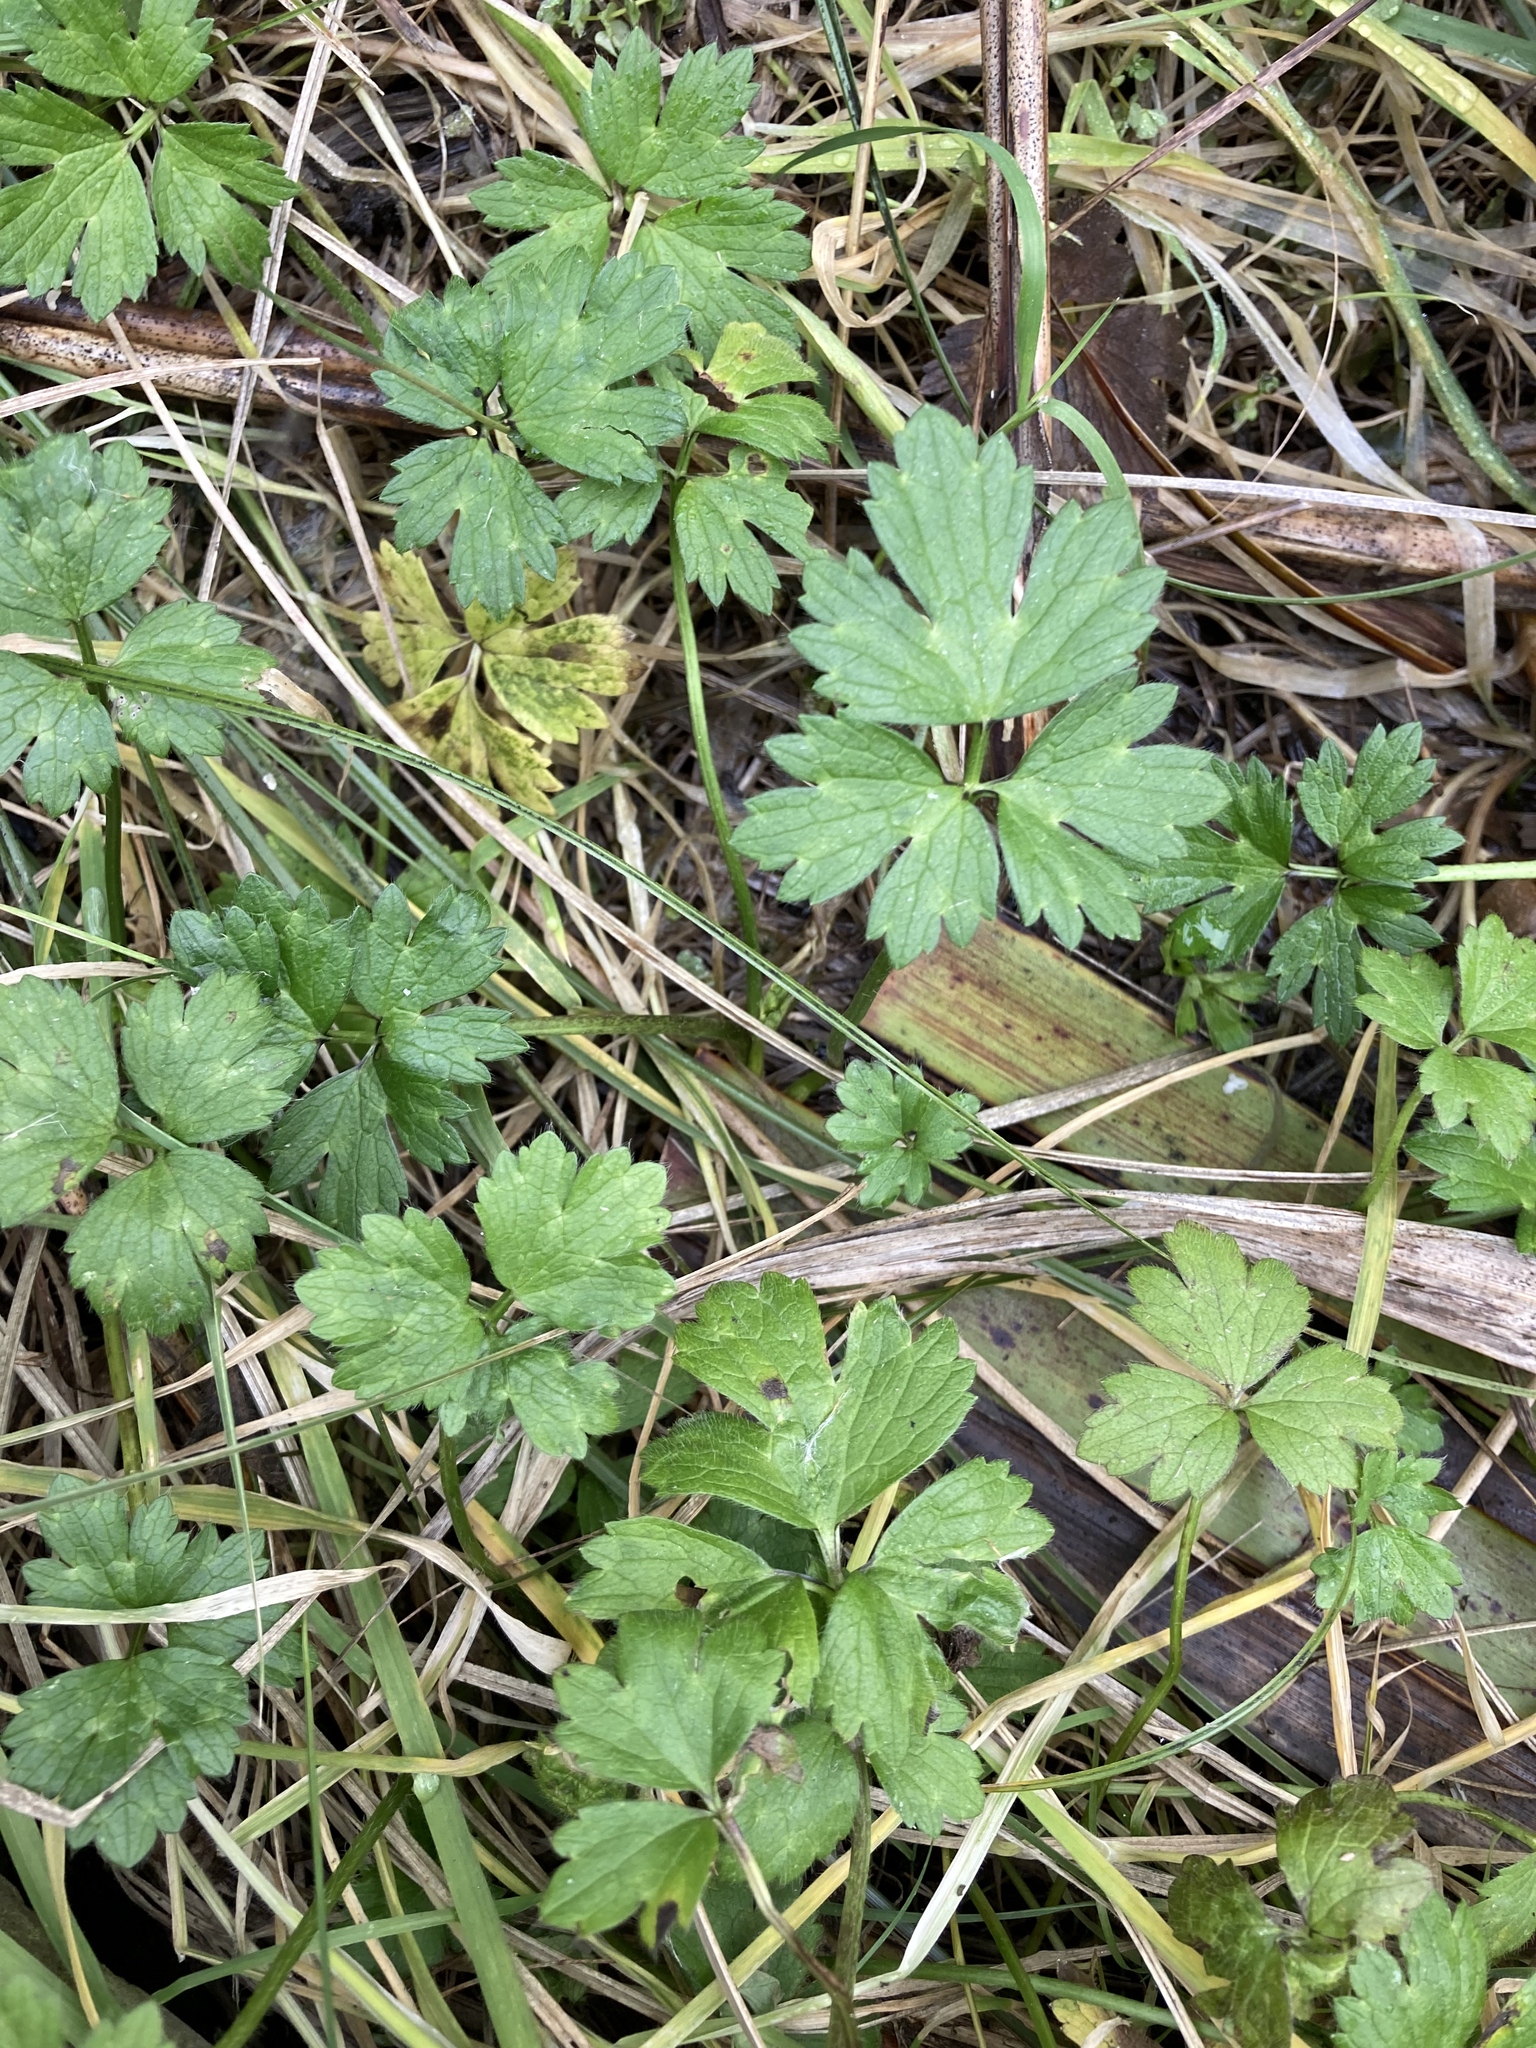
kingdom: Plantae
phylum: Tracheophyta
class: Magnoliopsida
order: Ranunculales
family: Ranunculaceae
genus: Ranunculus
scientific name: Ranunculus repens
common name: Creeping buttercup
